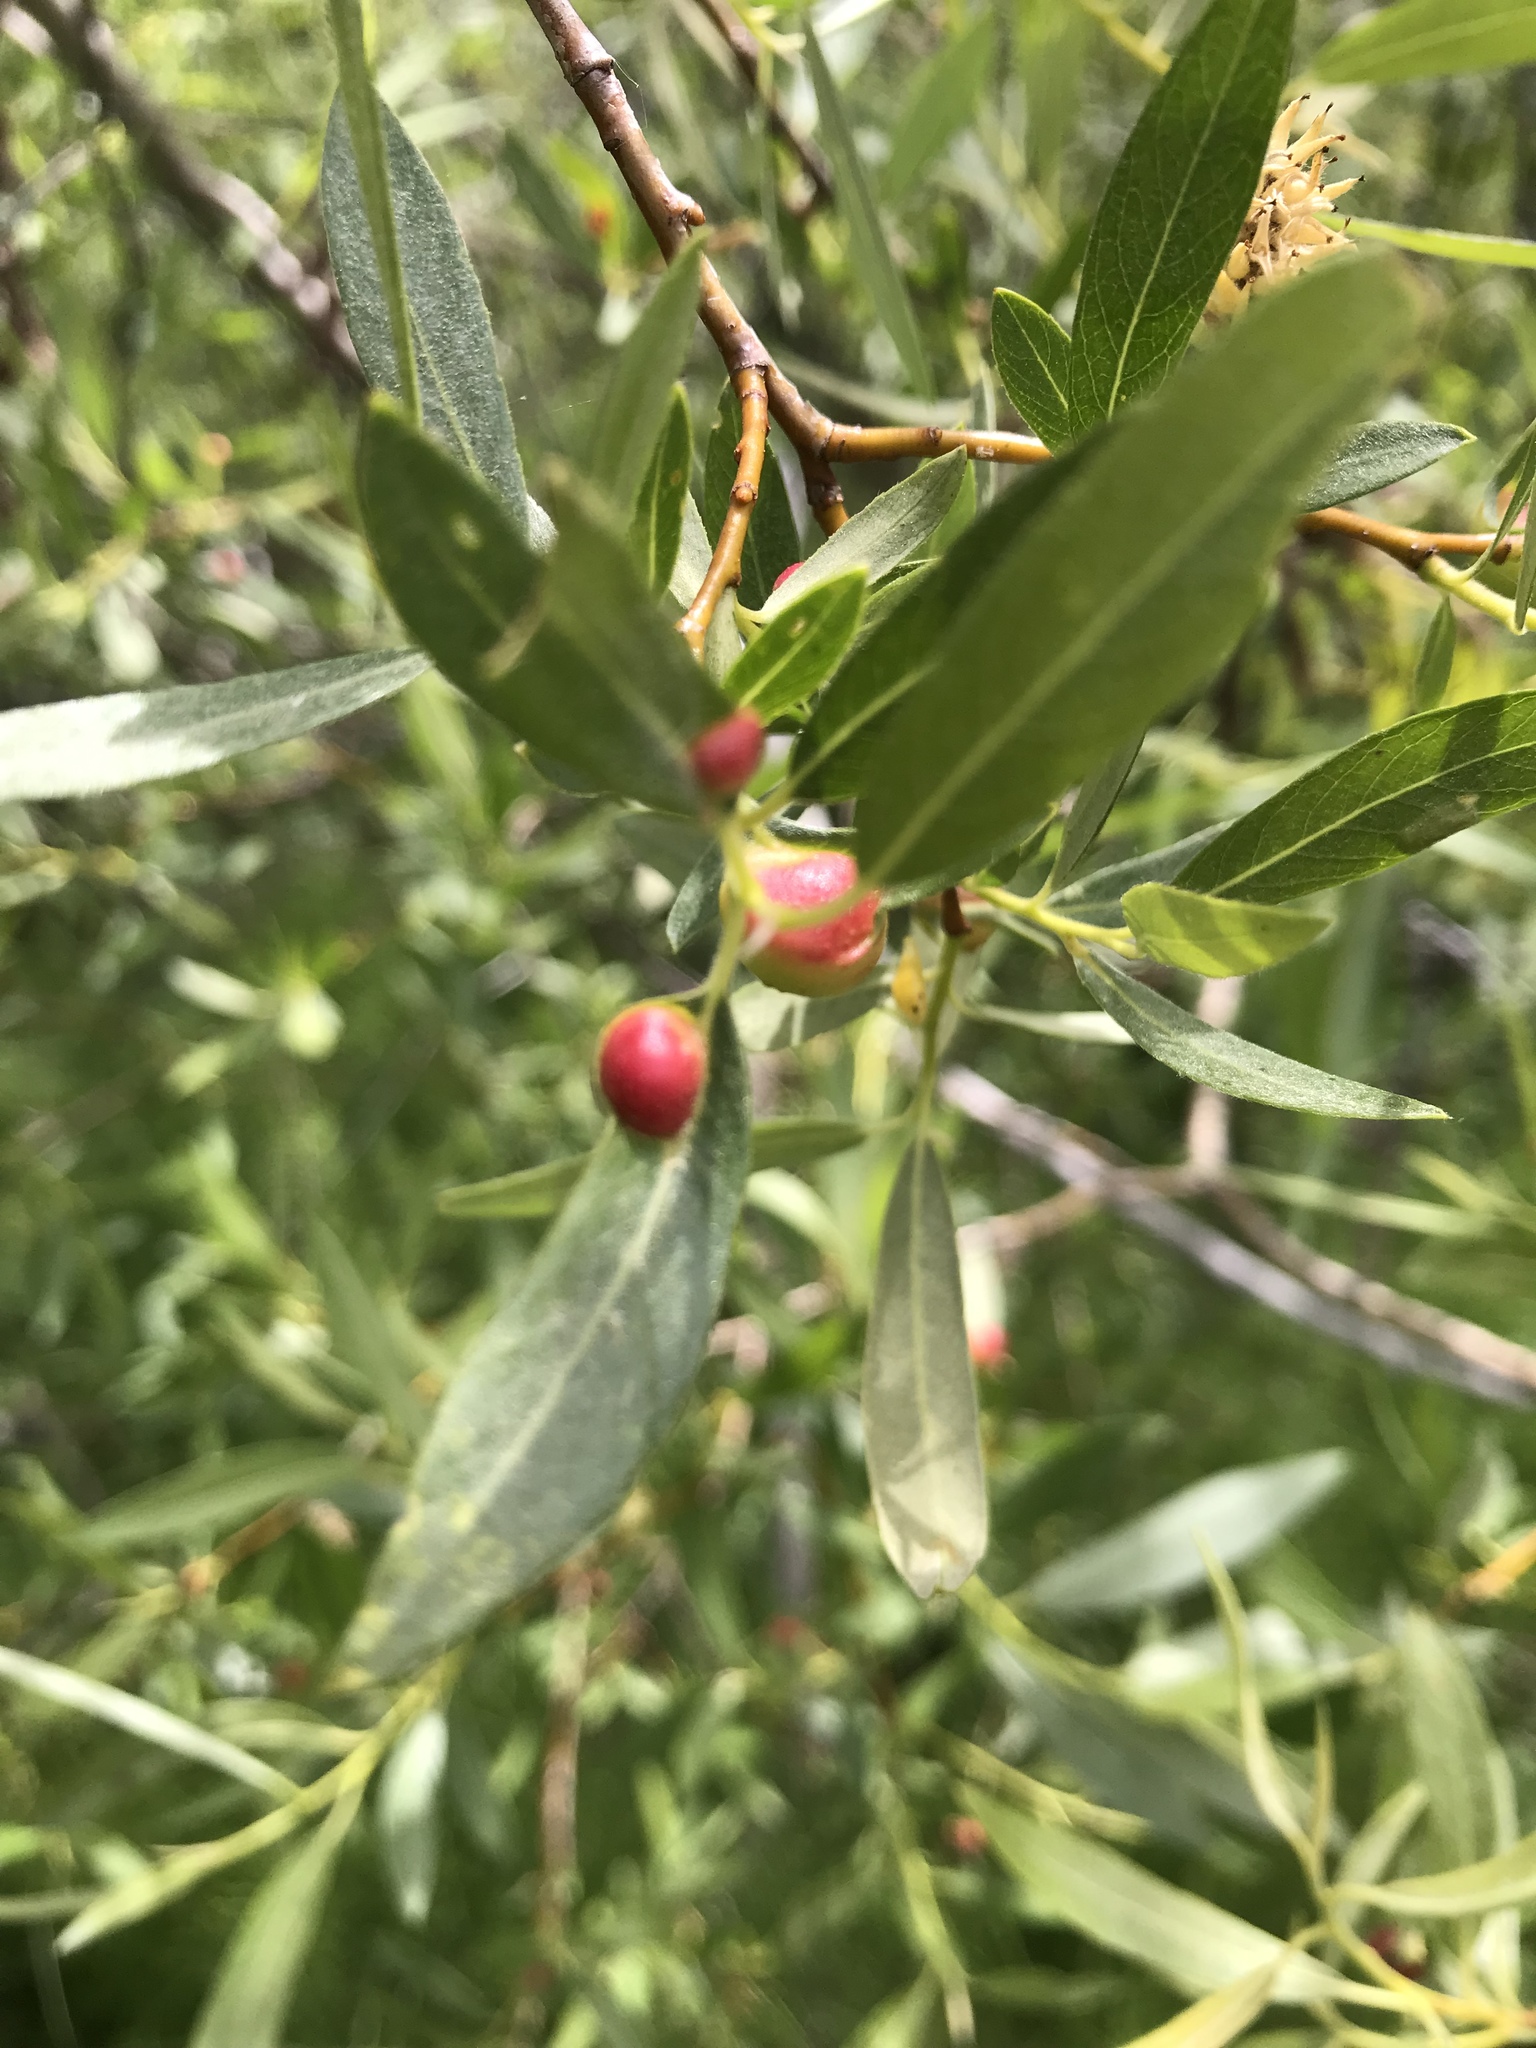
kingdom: Animalia
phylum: Arthropoda
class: Insecta
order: Hymenoptera
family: Tenthredinidae
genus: Euura
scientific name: Euura
